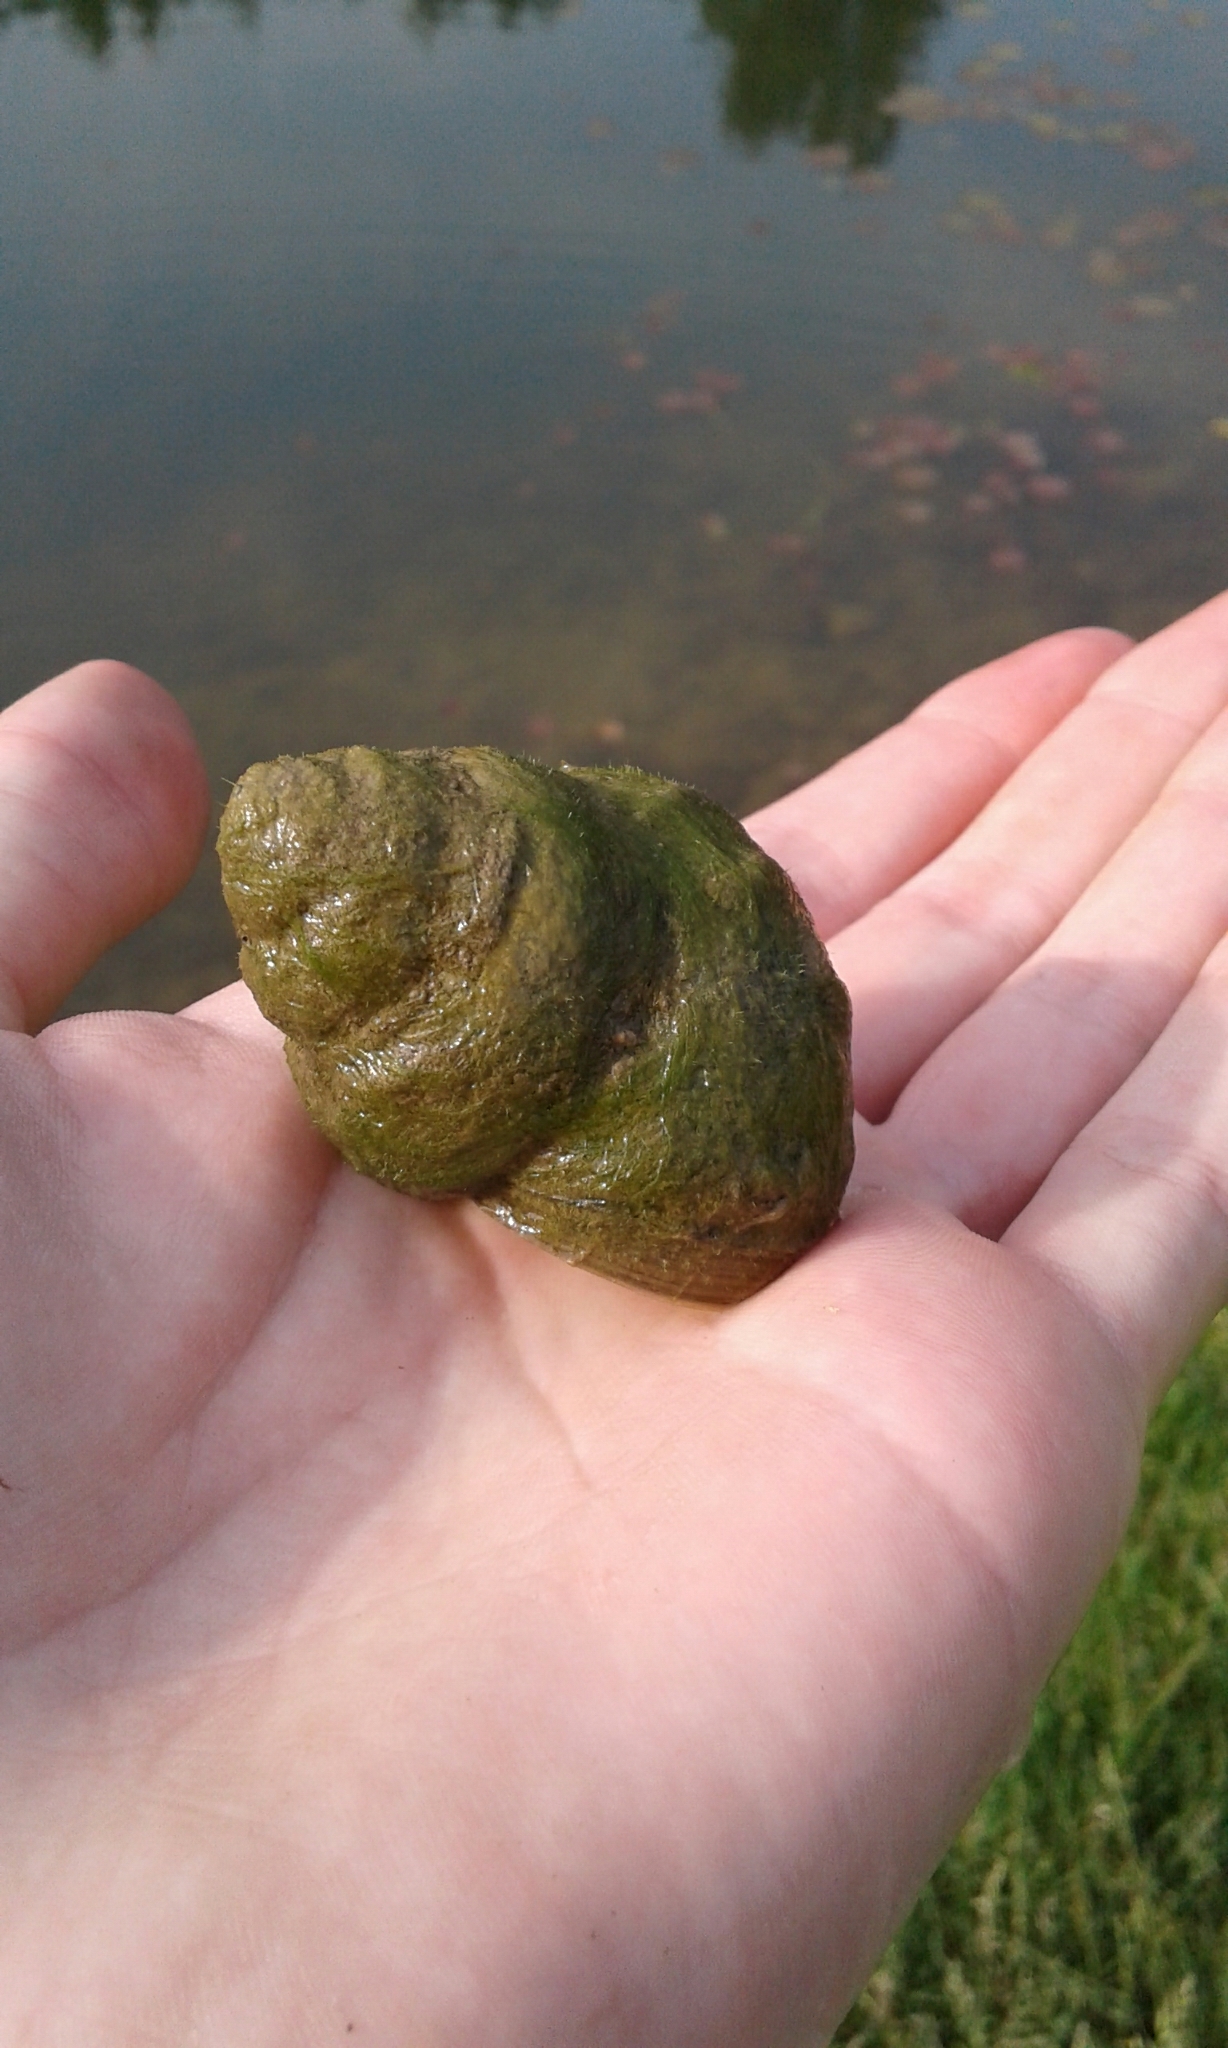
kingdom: Animalia
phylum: Mollusca
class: Gastropoda
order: Architaenioglossa
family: Viviparidae
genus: Cipangopaludina
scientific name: Cipangopaludina chinensis
